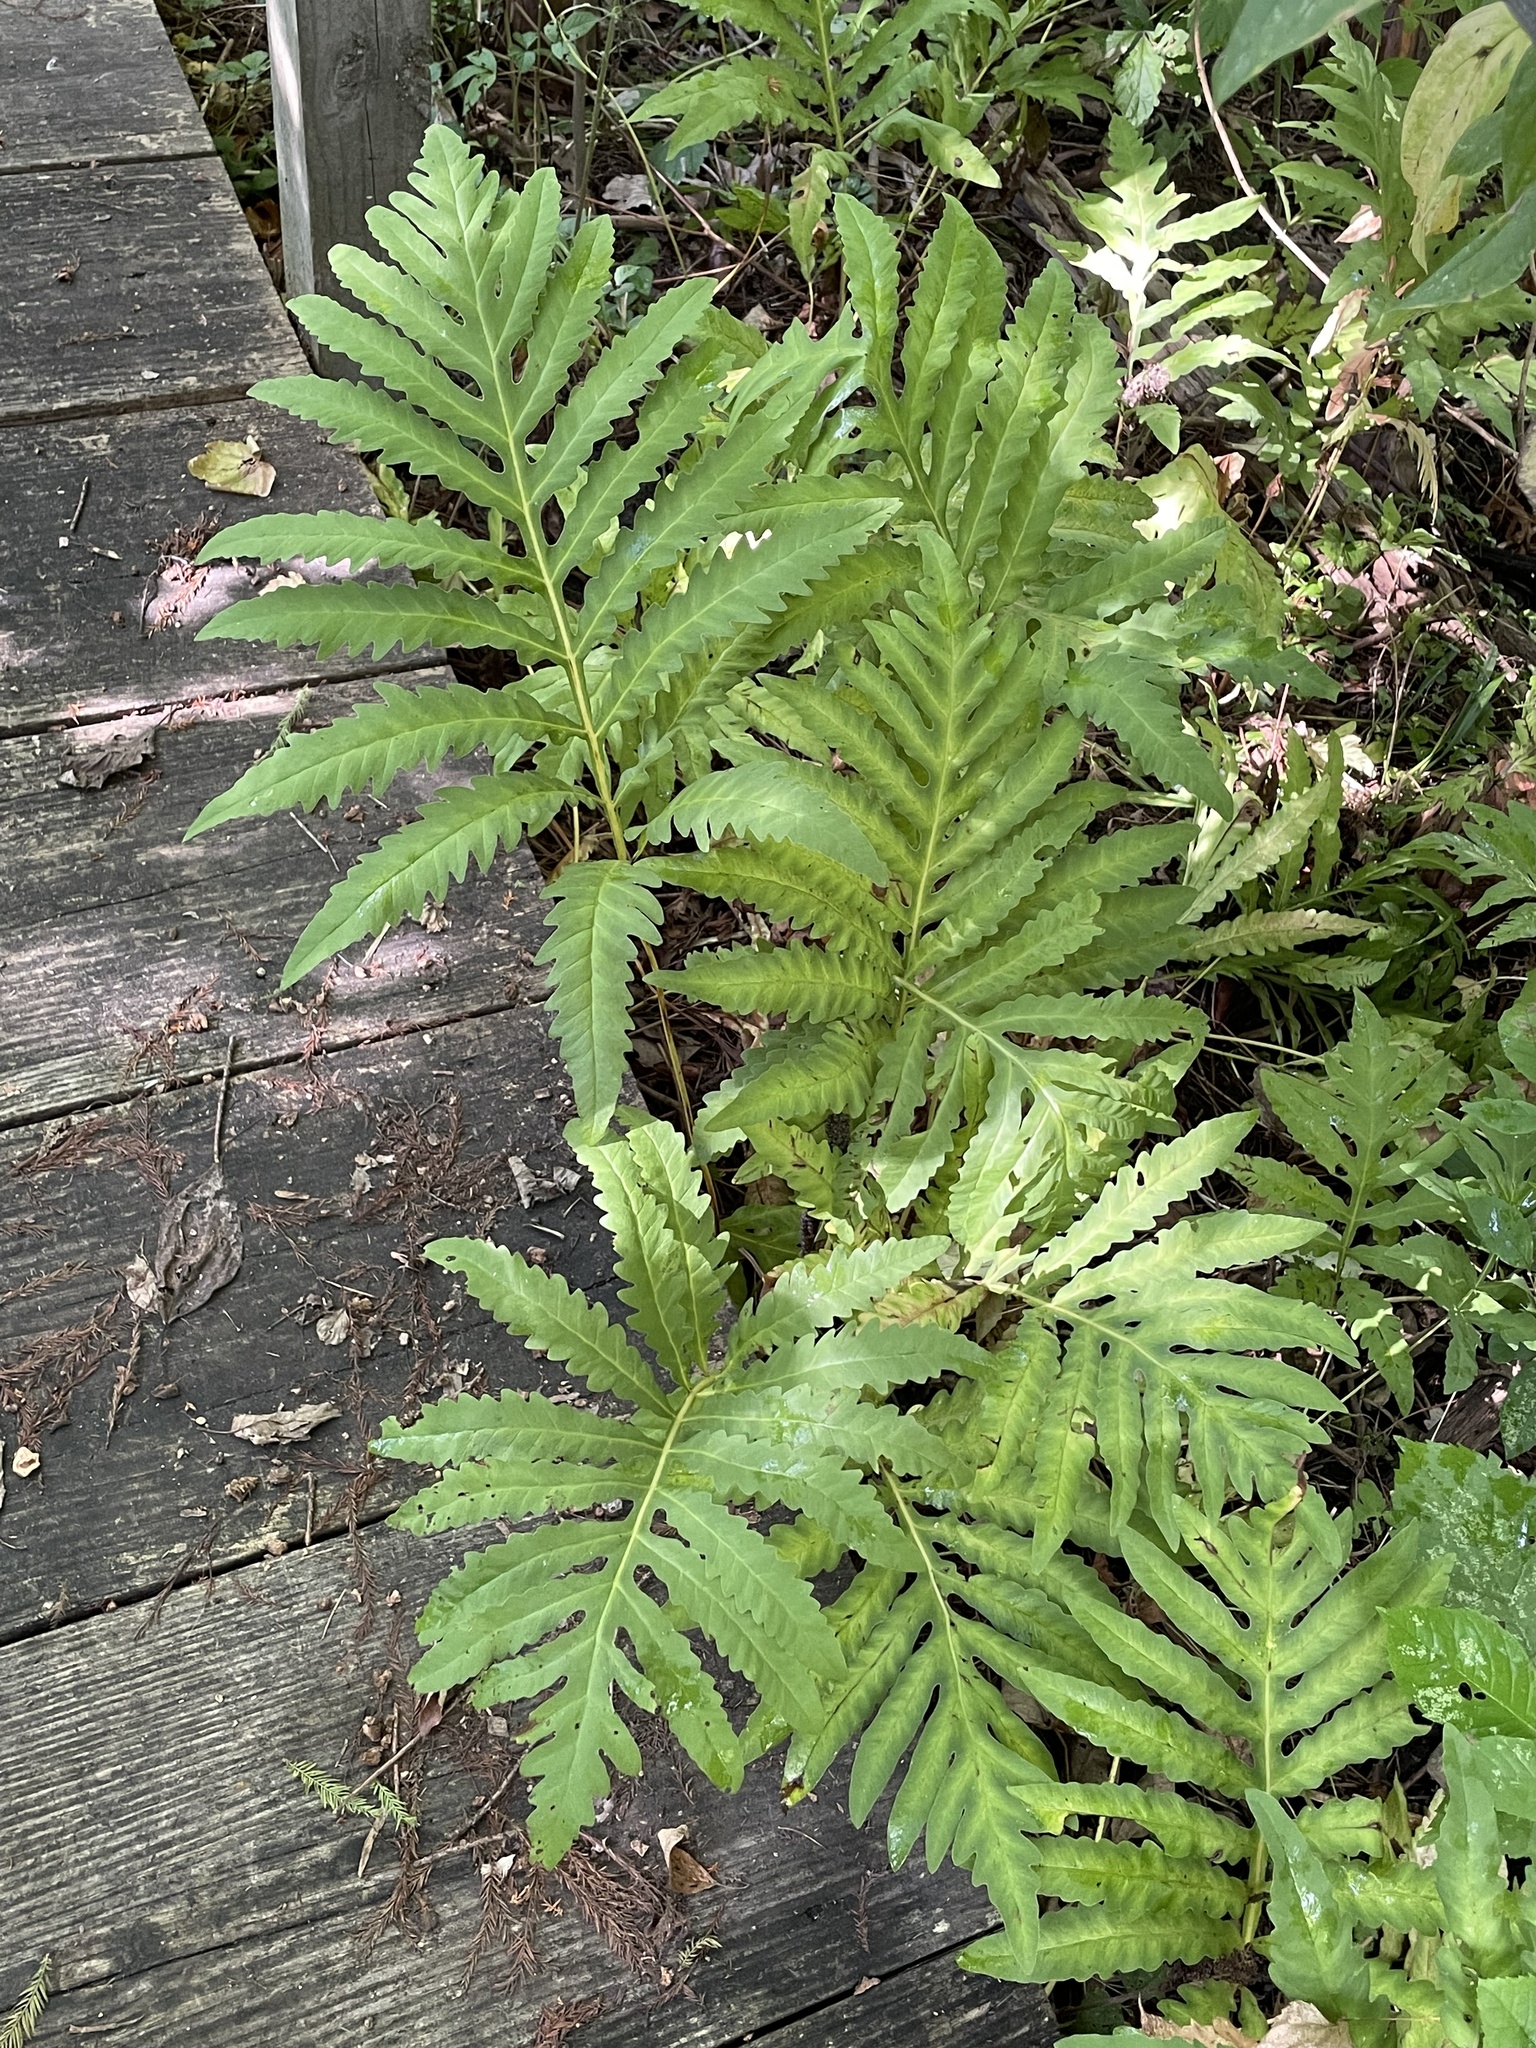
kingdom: Plantae
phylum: Tracheophyta
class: Polypodiopsida
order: Polypodiales
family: Onocleaceae
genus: Onoclea
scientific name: Onoclea sensibilis
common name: Sensitive fern
